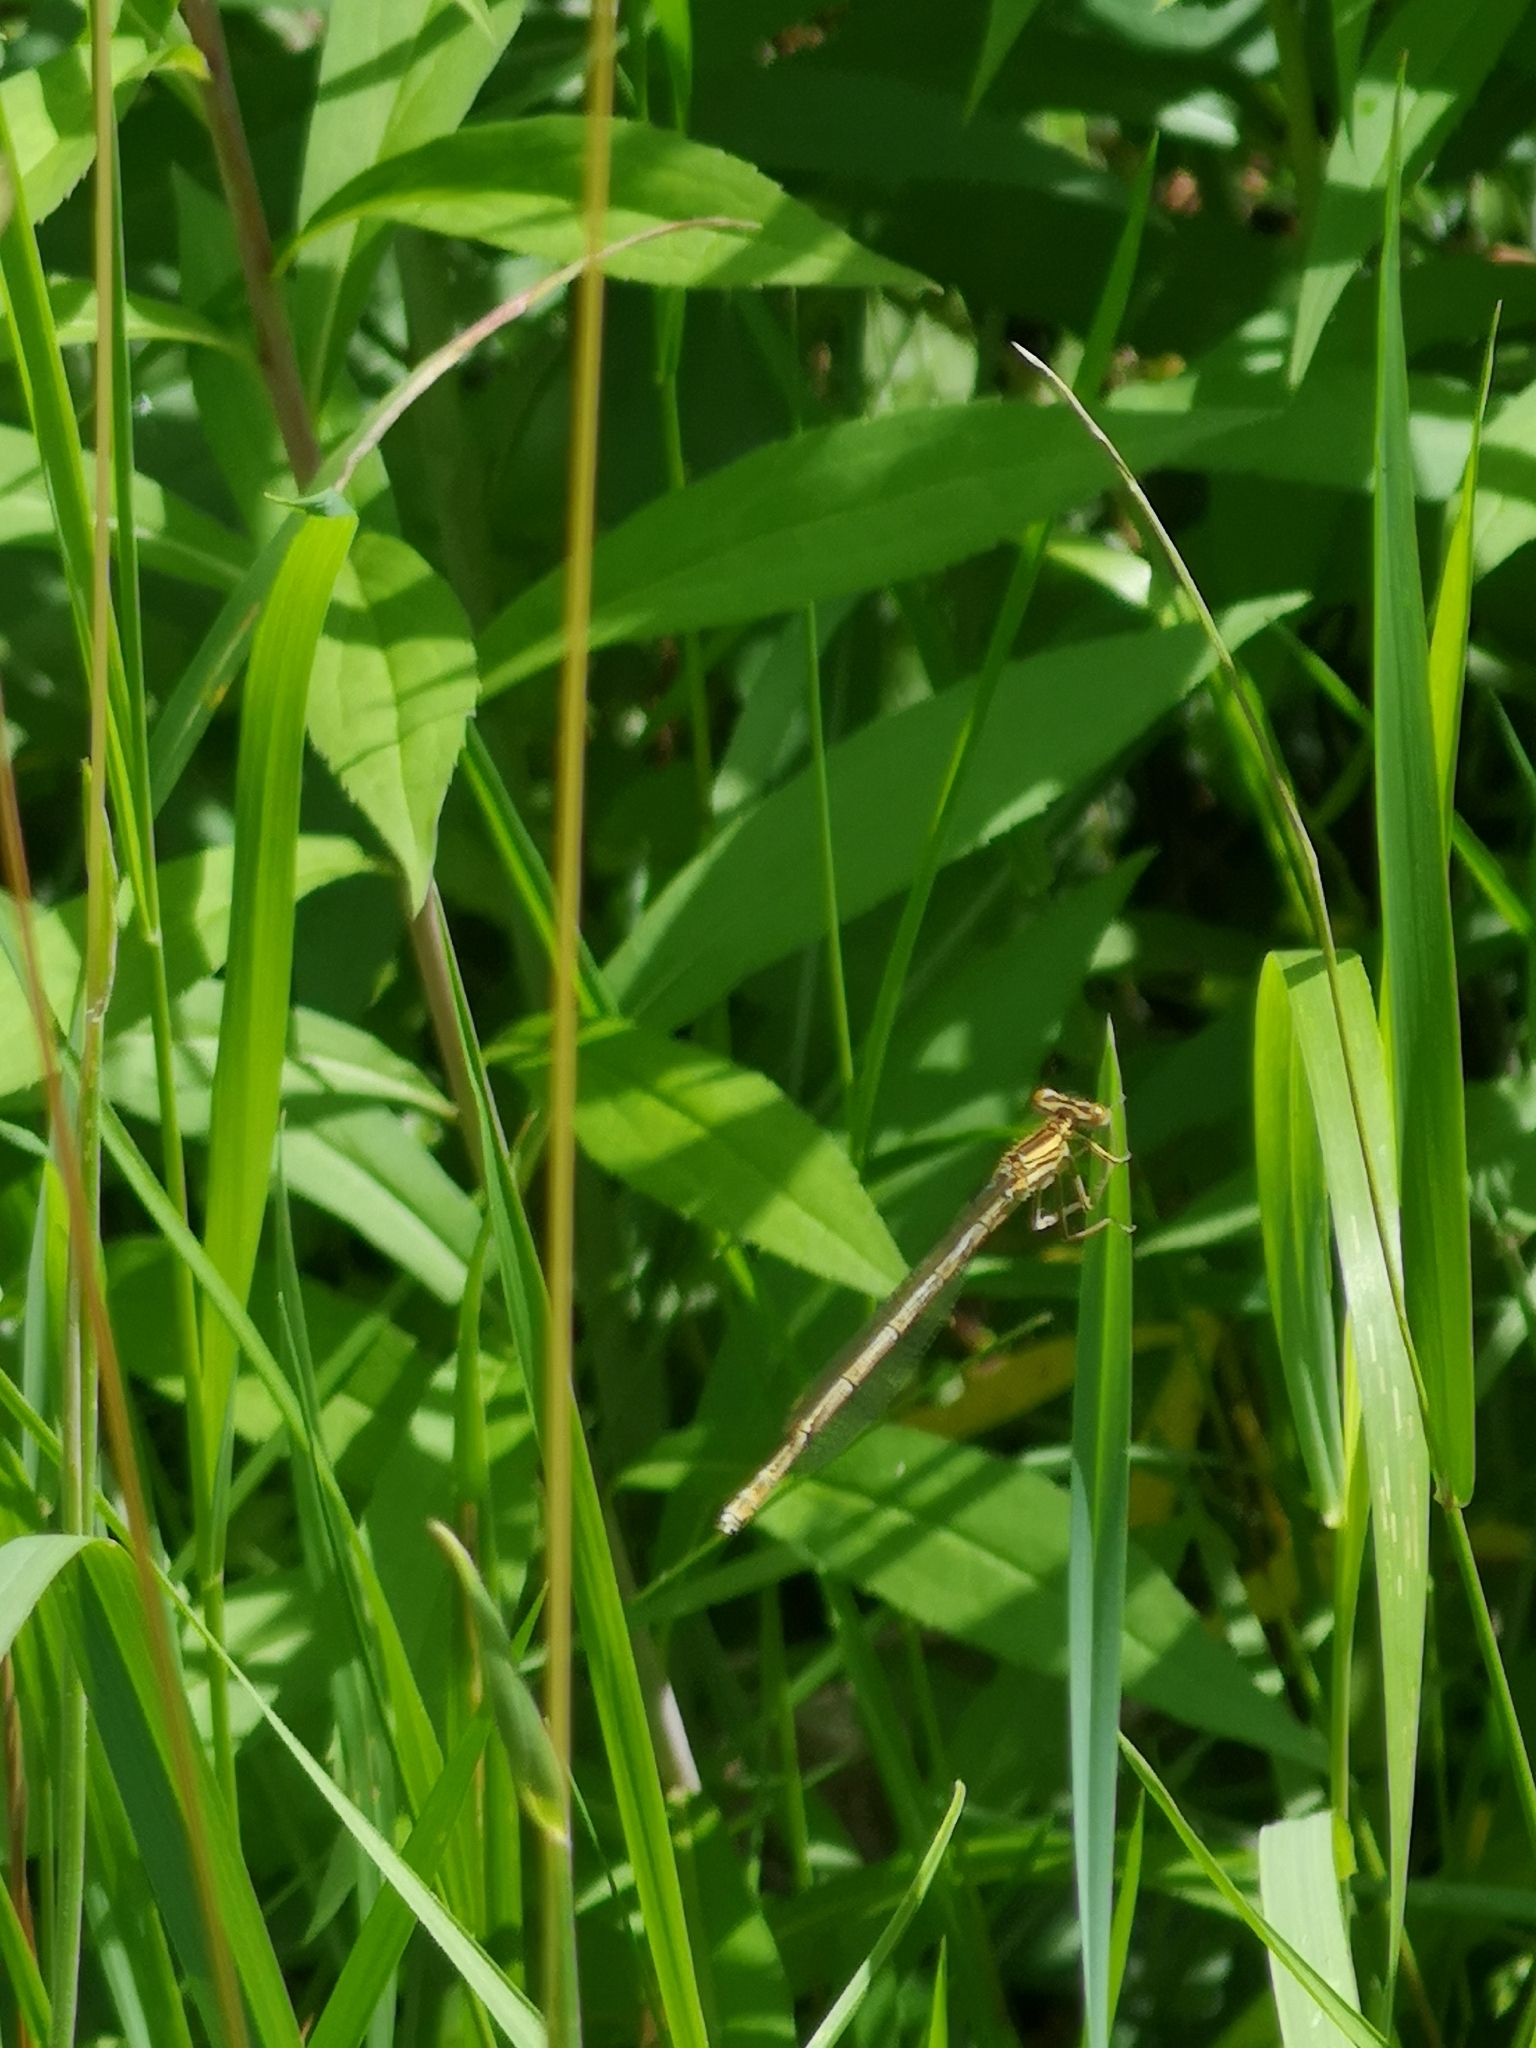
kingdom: Animalia
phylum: Arthropoda
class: Insecta
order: Odonata
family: Platycnemididae
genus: Platycnemis
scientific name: Platycnemis pennipes
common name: White-legged damselfly
